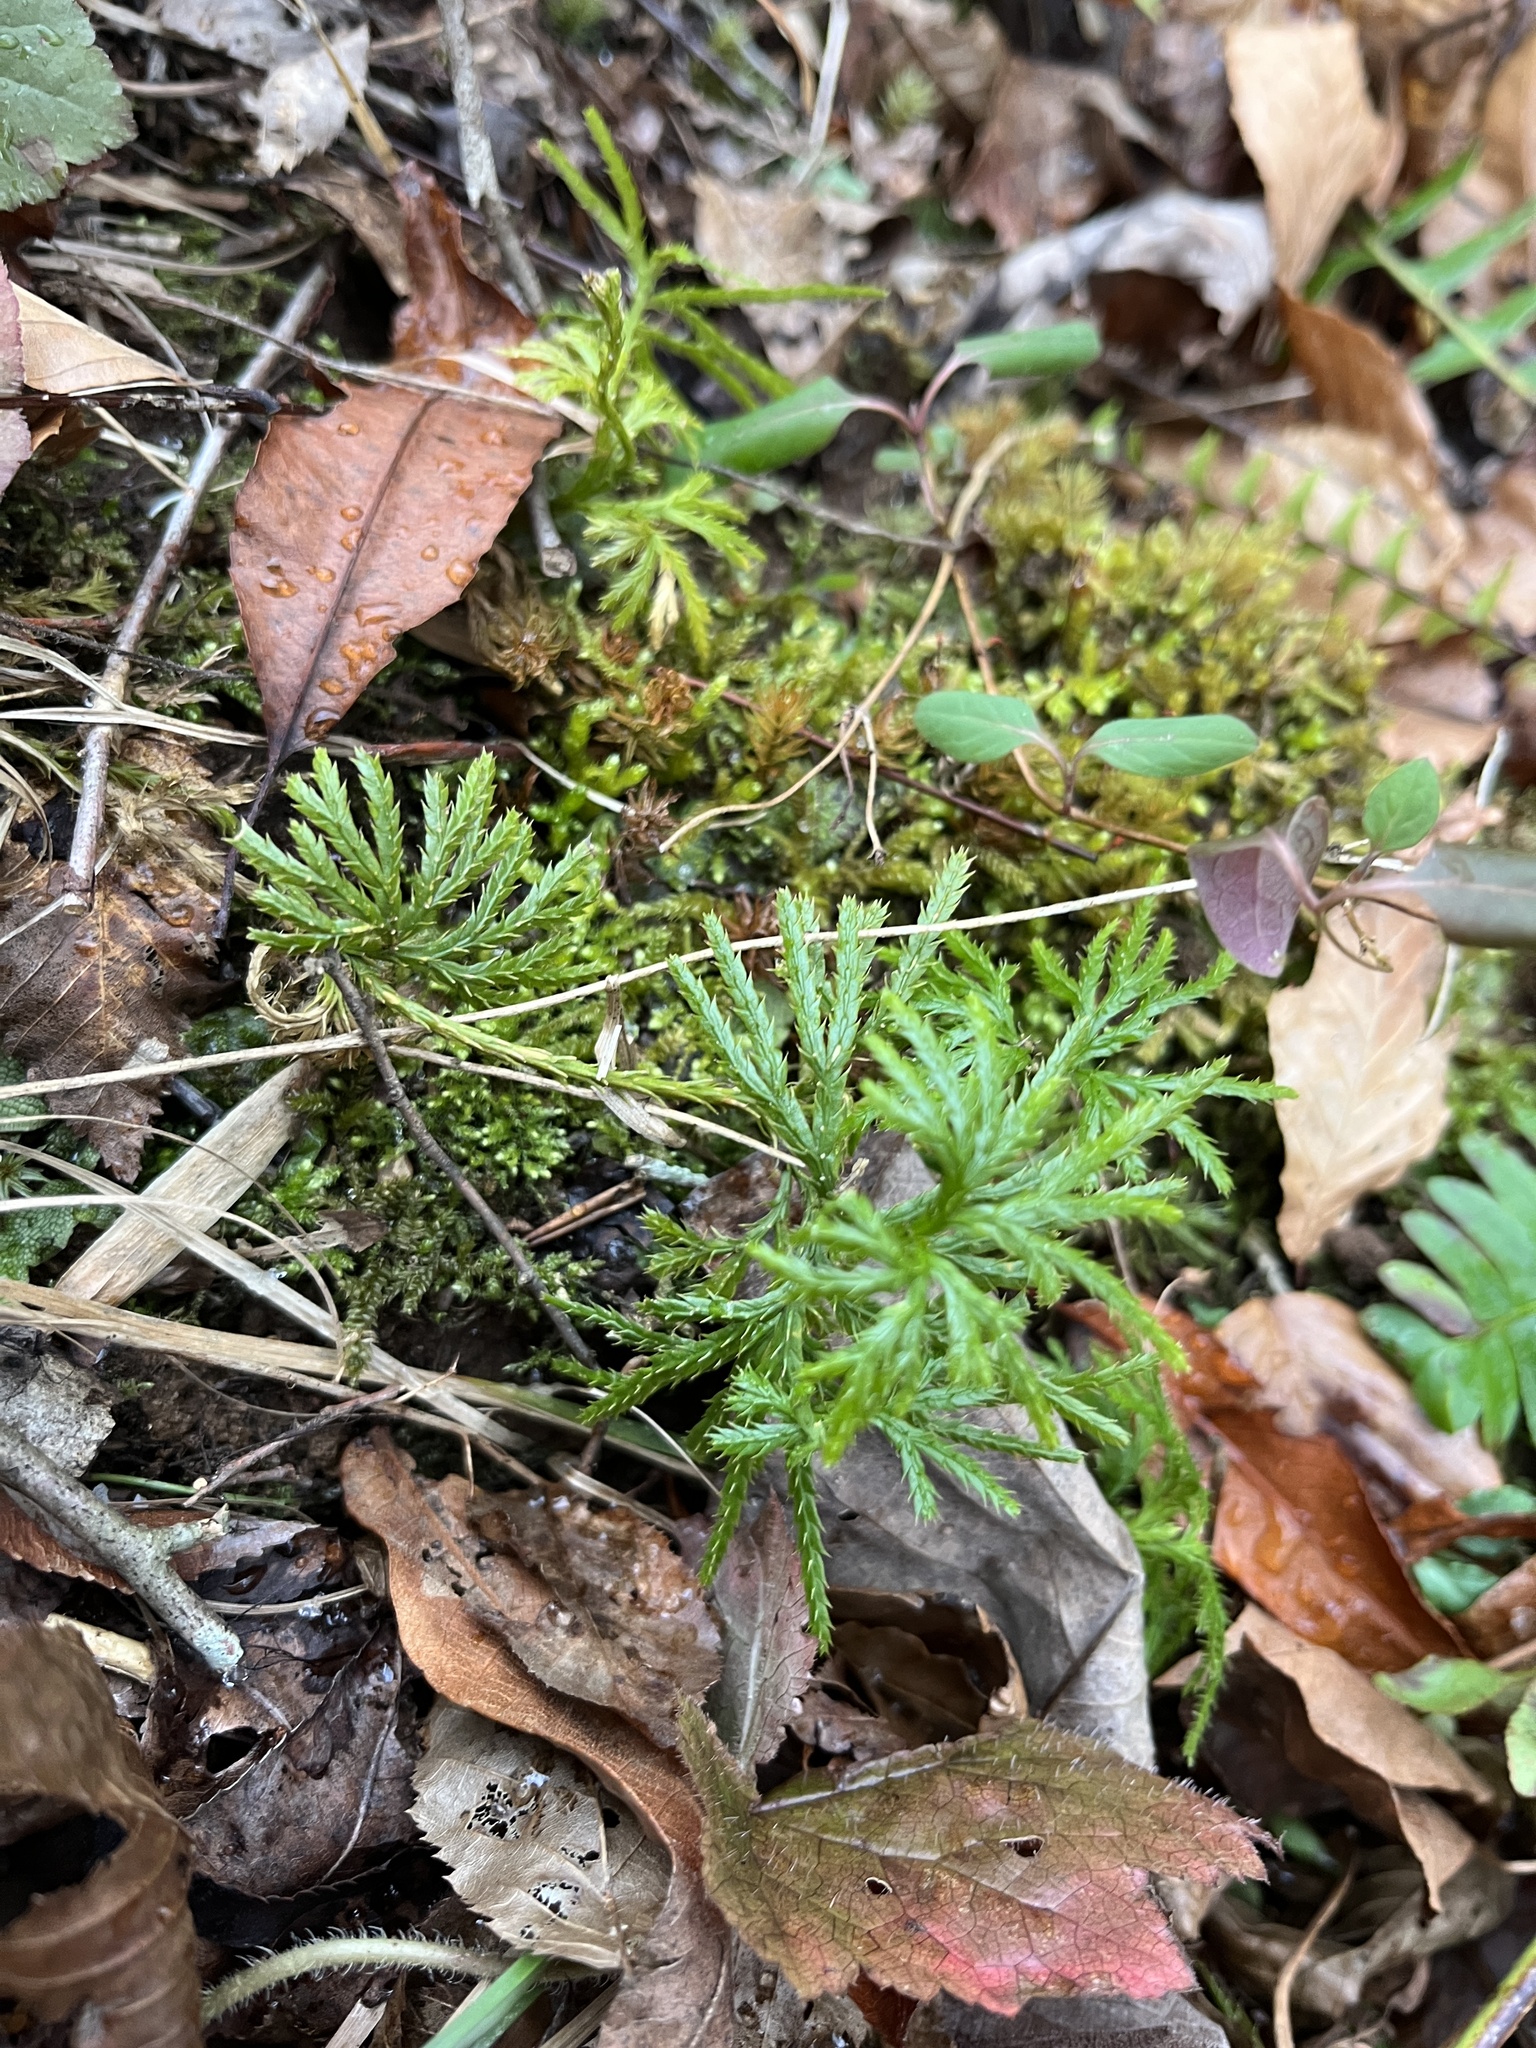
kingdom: Plantae
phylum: Tracheophyta
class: Lycopodiopsida
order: Lycopodiales
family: Lycopodiaceae
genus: Diphasiastrum
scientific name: Diphasiastrum digitatum
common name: Southern running-pine
